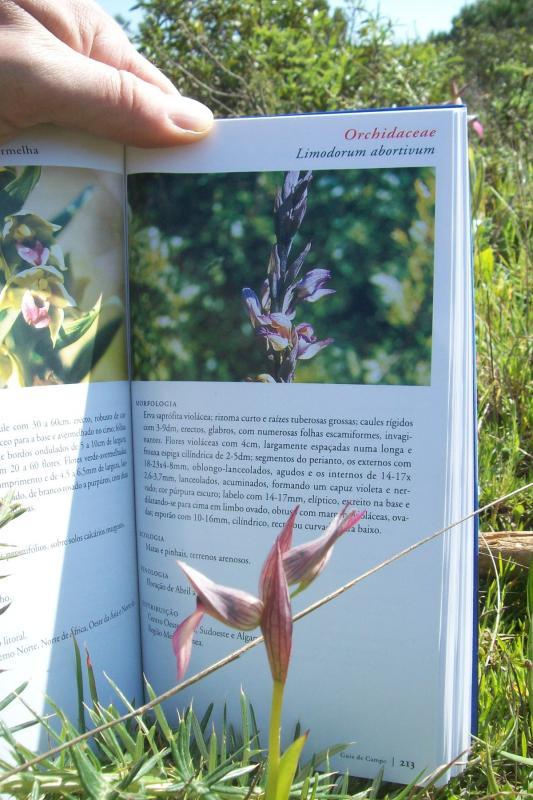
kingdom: Plantae
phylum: Tracheophyta
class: Liliopsida
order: Asparagales
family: Orchidaceae
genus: Serapias
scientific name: Serapias lingua
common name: Tongue-orchid
